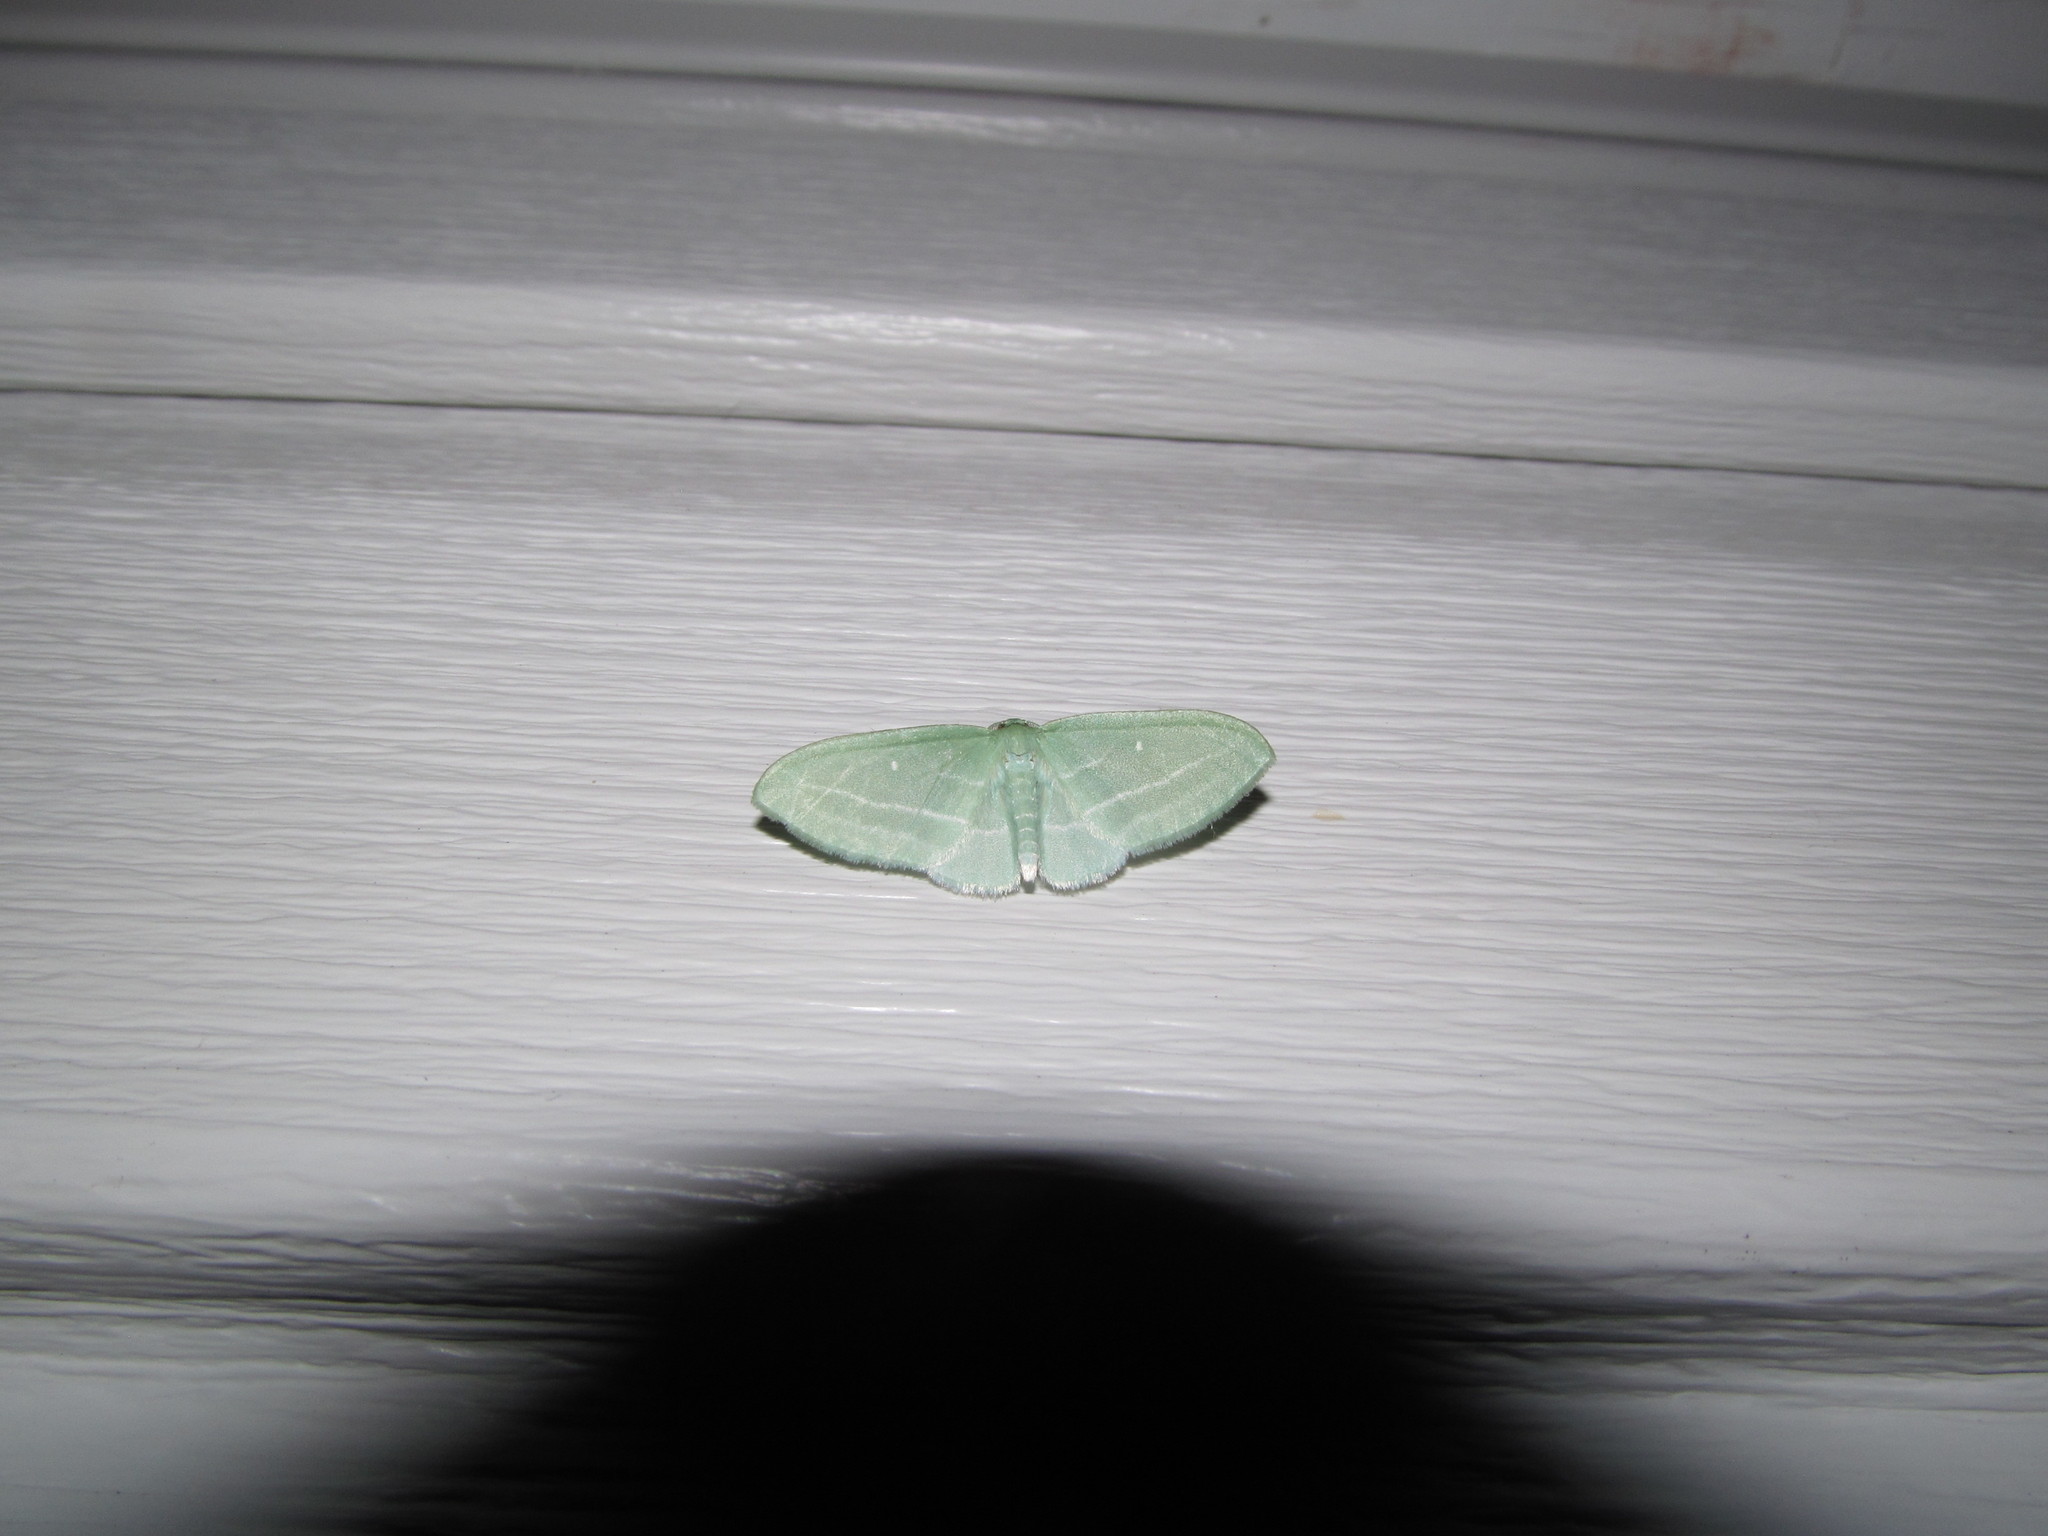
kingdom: Animalia
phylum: Arthropoda
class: Insecta
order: Lepidoptera
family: Geometridae
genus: Dyspteris
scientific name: Dyspteris abortivaria
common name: Bad-wing
